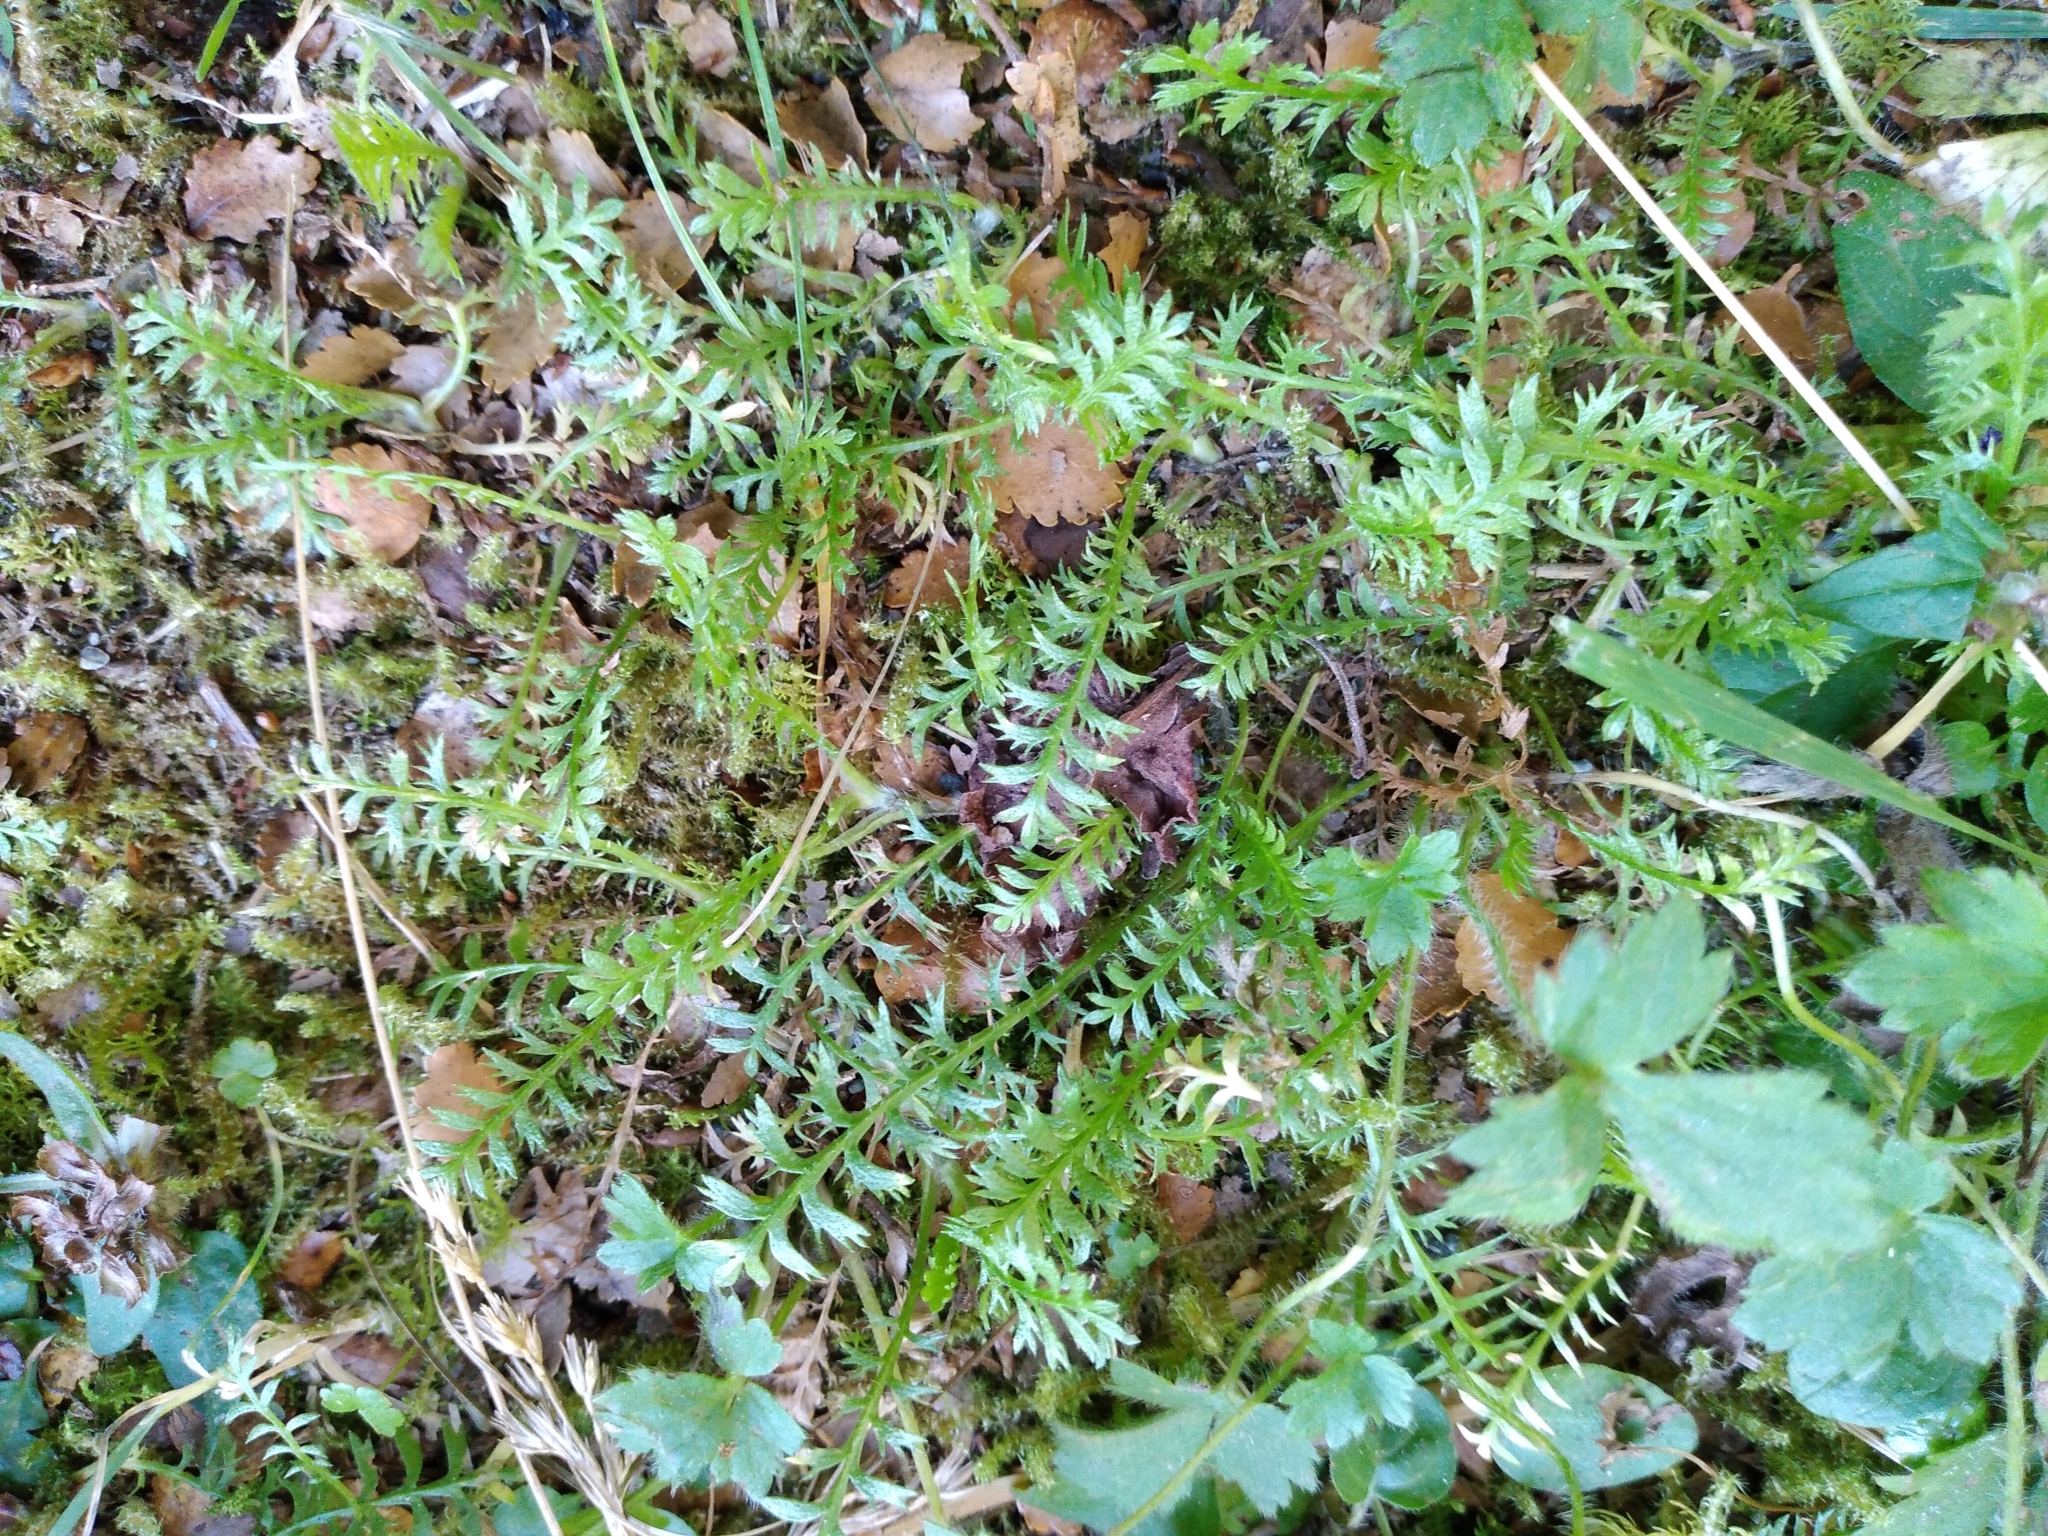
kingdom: Plantae
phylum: Tracheophyta
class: Magnoliopsida
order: Asterales
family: Asteraceae
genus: Leptinella
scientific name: Leptinella squalida
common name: New zealand brass-buttons
